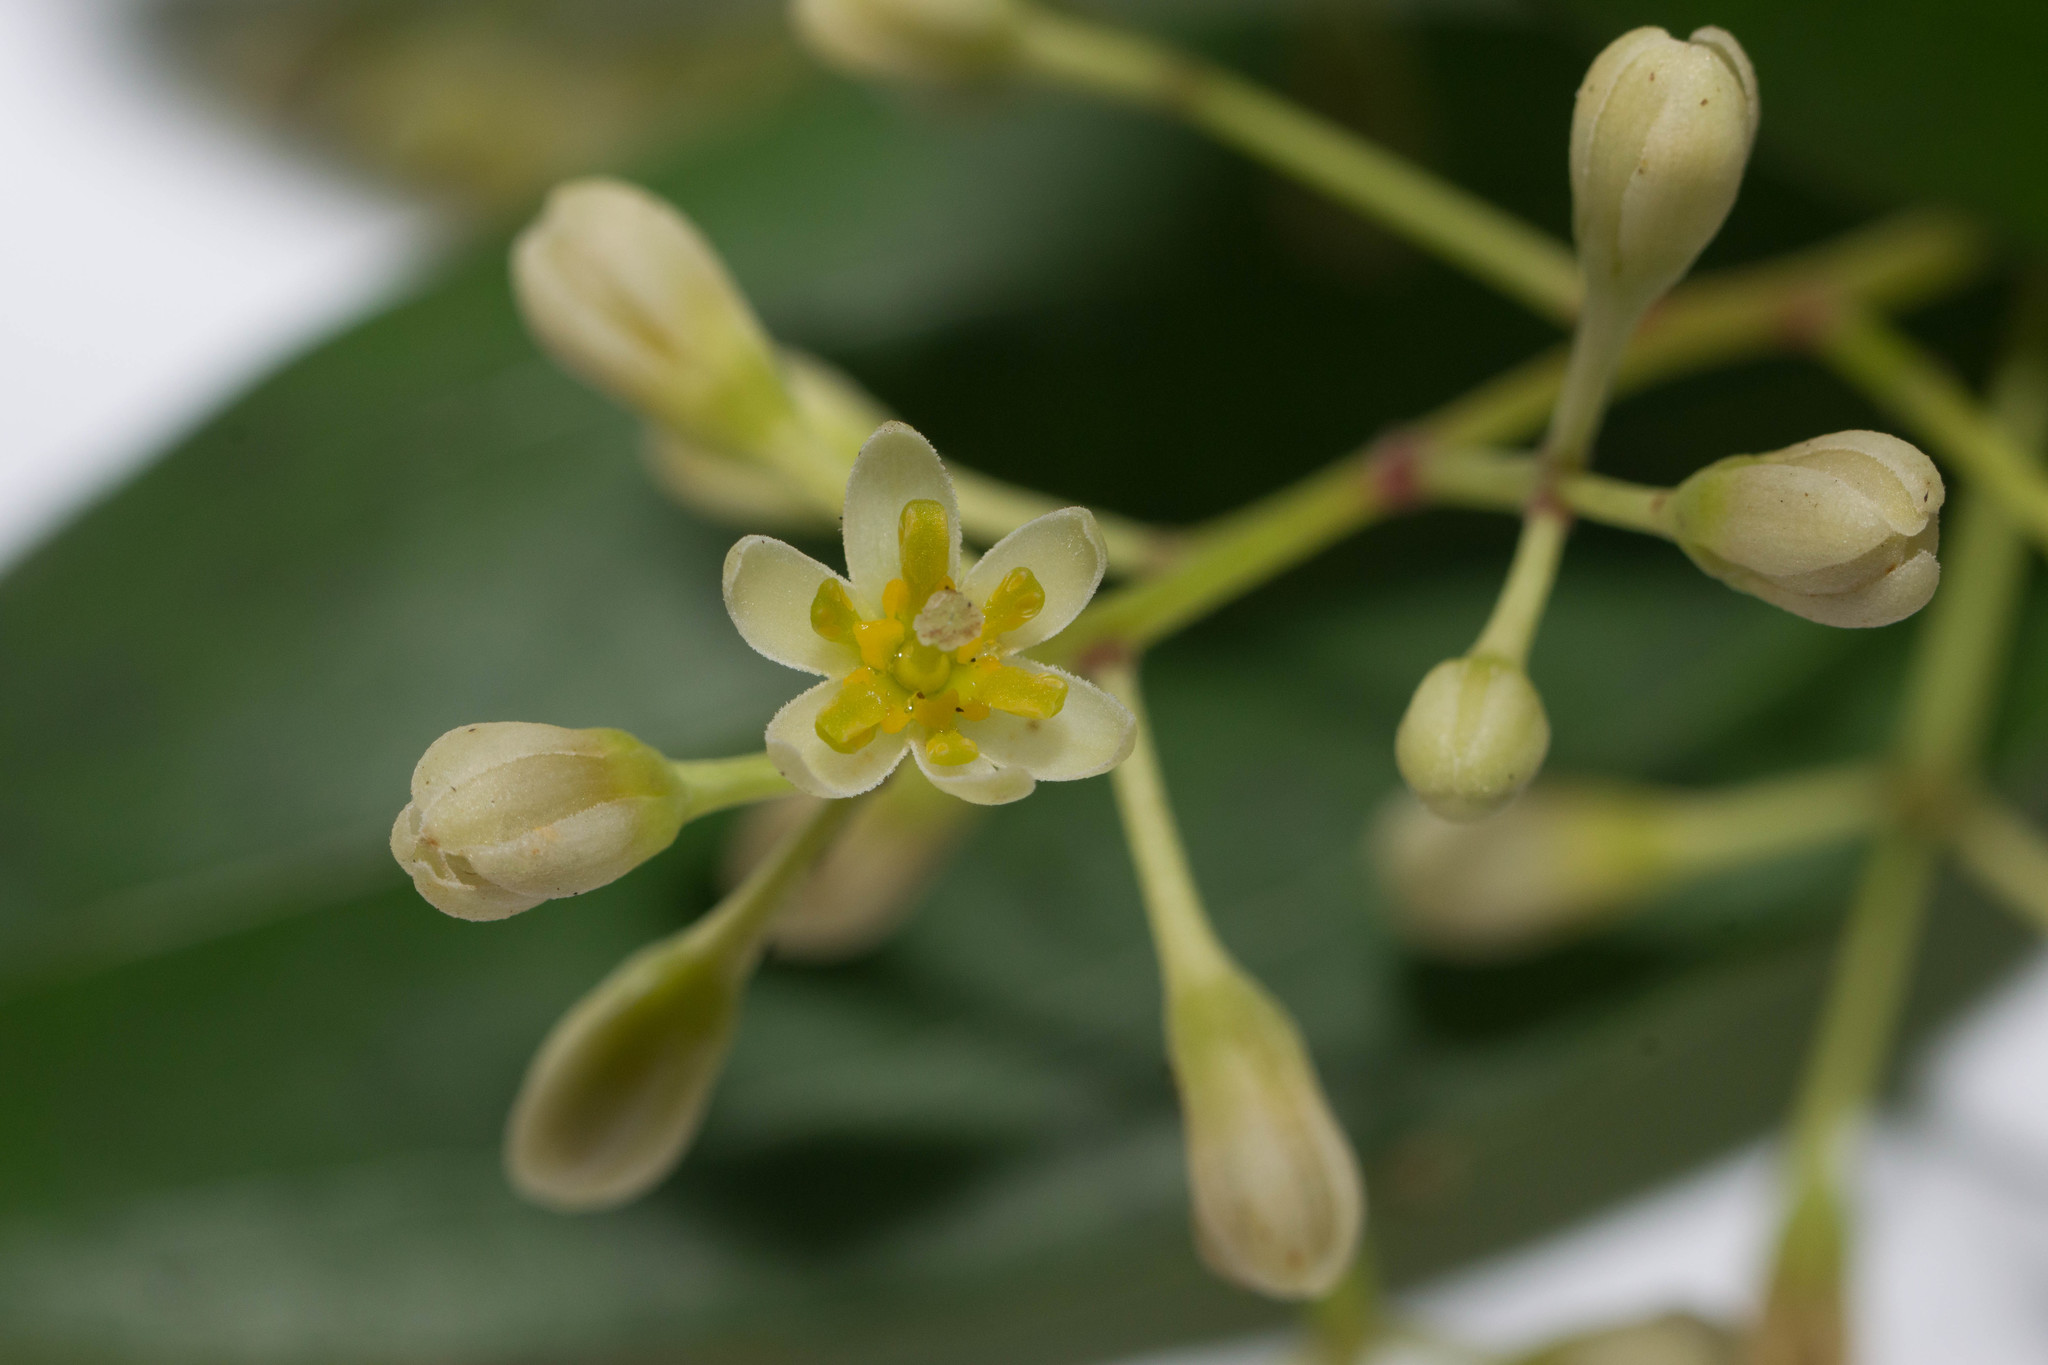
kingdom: Plantae
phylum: Tracheophyta
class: Magnoliopsida
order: Laurales
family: Lauraceae
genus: Cinnamomum
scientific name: Cinnamomum burmanni
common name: Padang cassia
